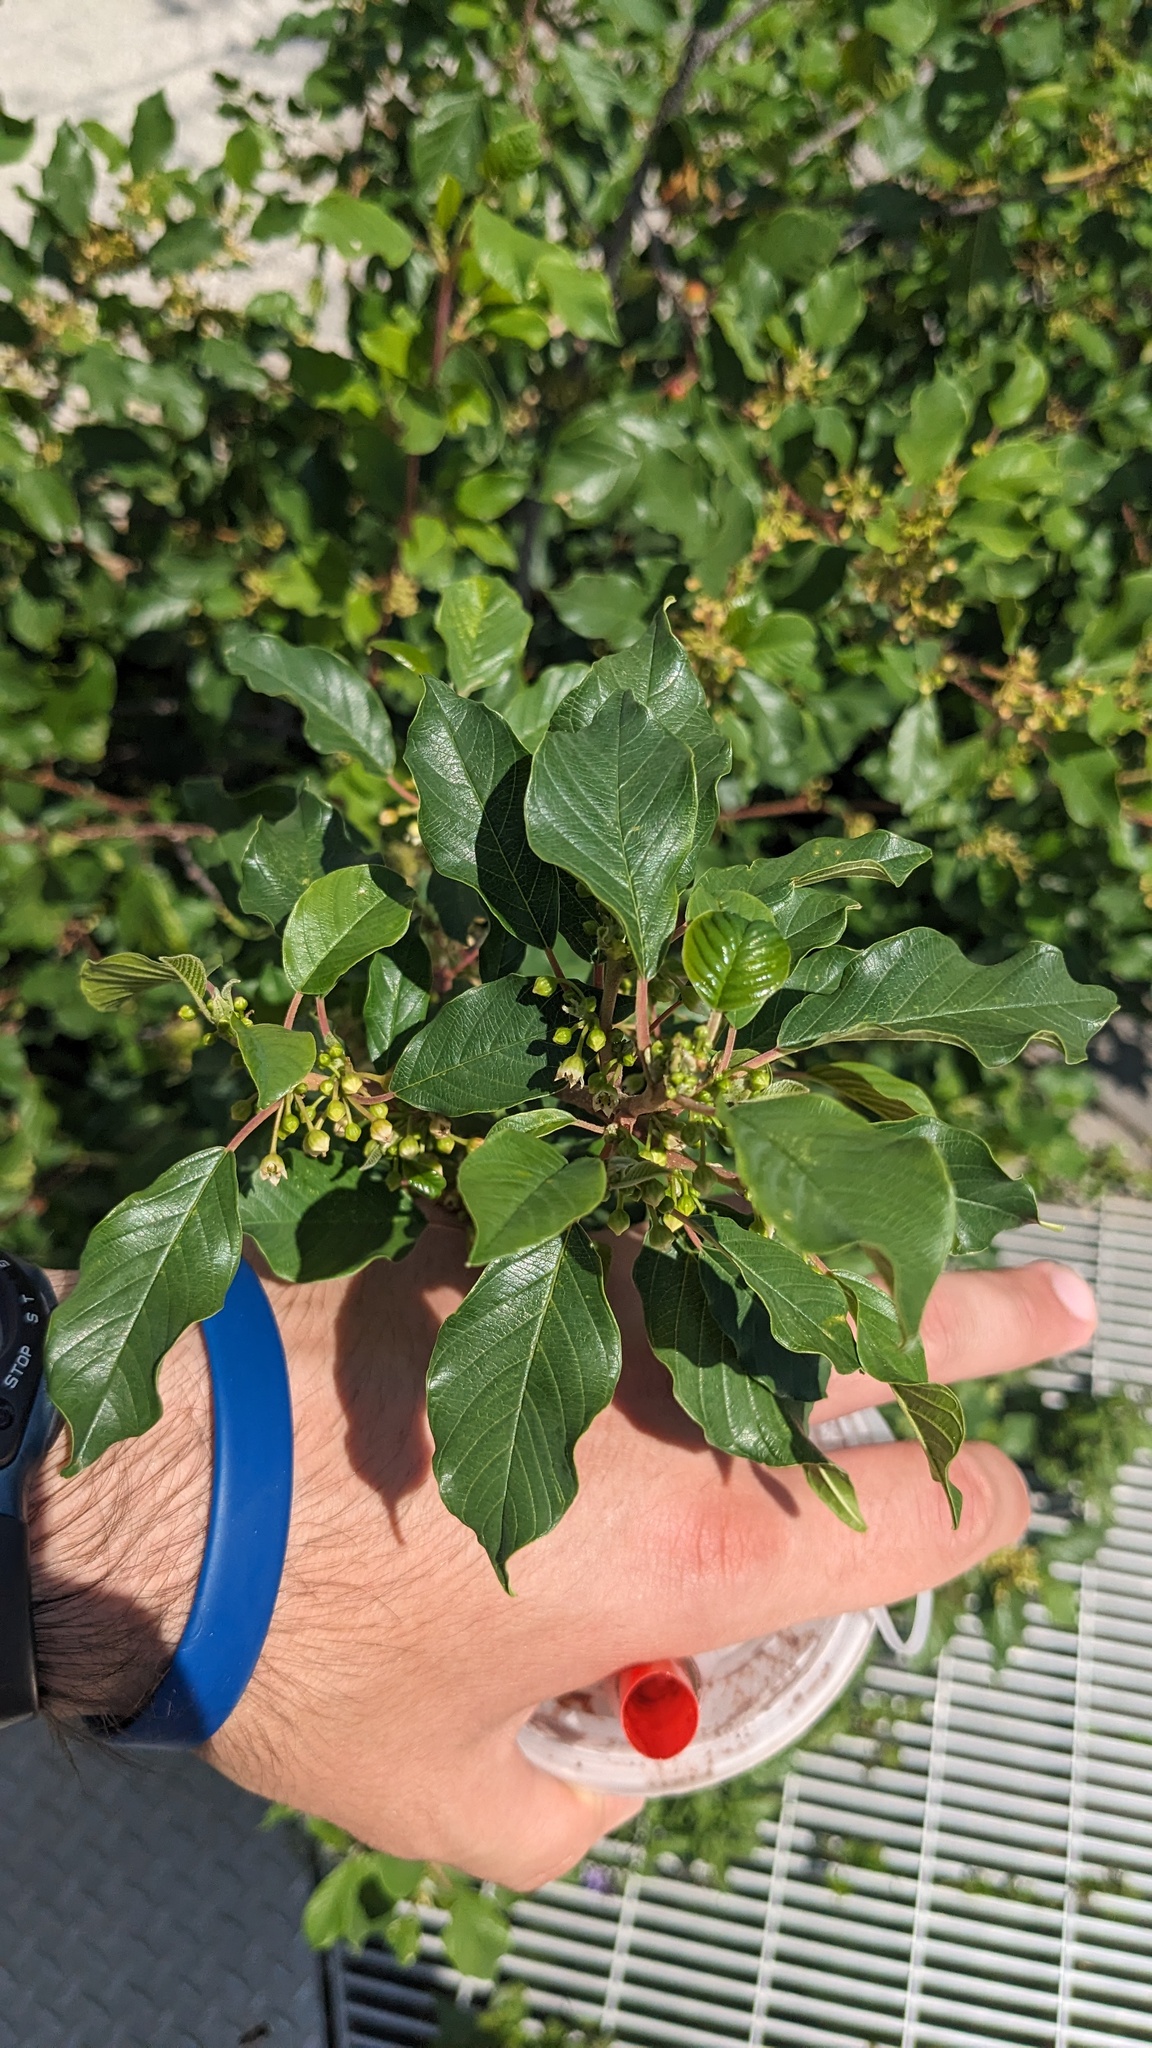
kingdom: Plantae
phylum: Tracheophyta
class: Magnoliopsida
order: Rosales
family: Rhamnaceae
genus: Frangula
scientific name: Frangula alnus
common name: Alder buckthorn
